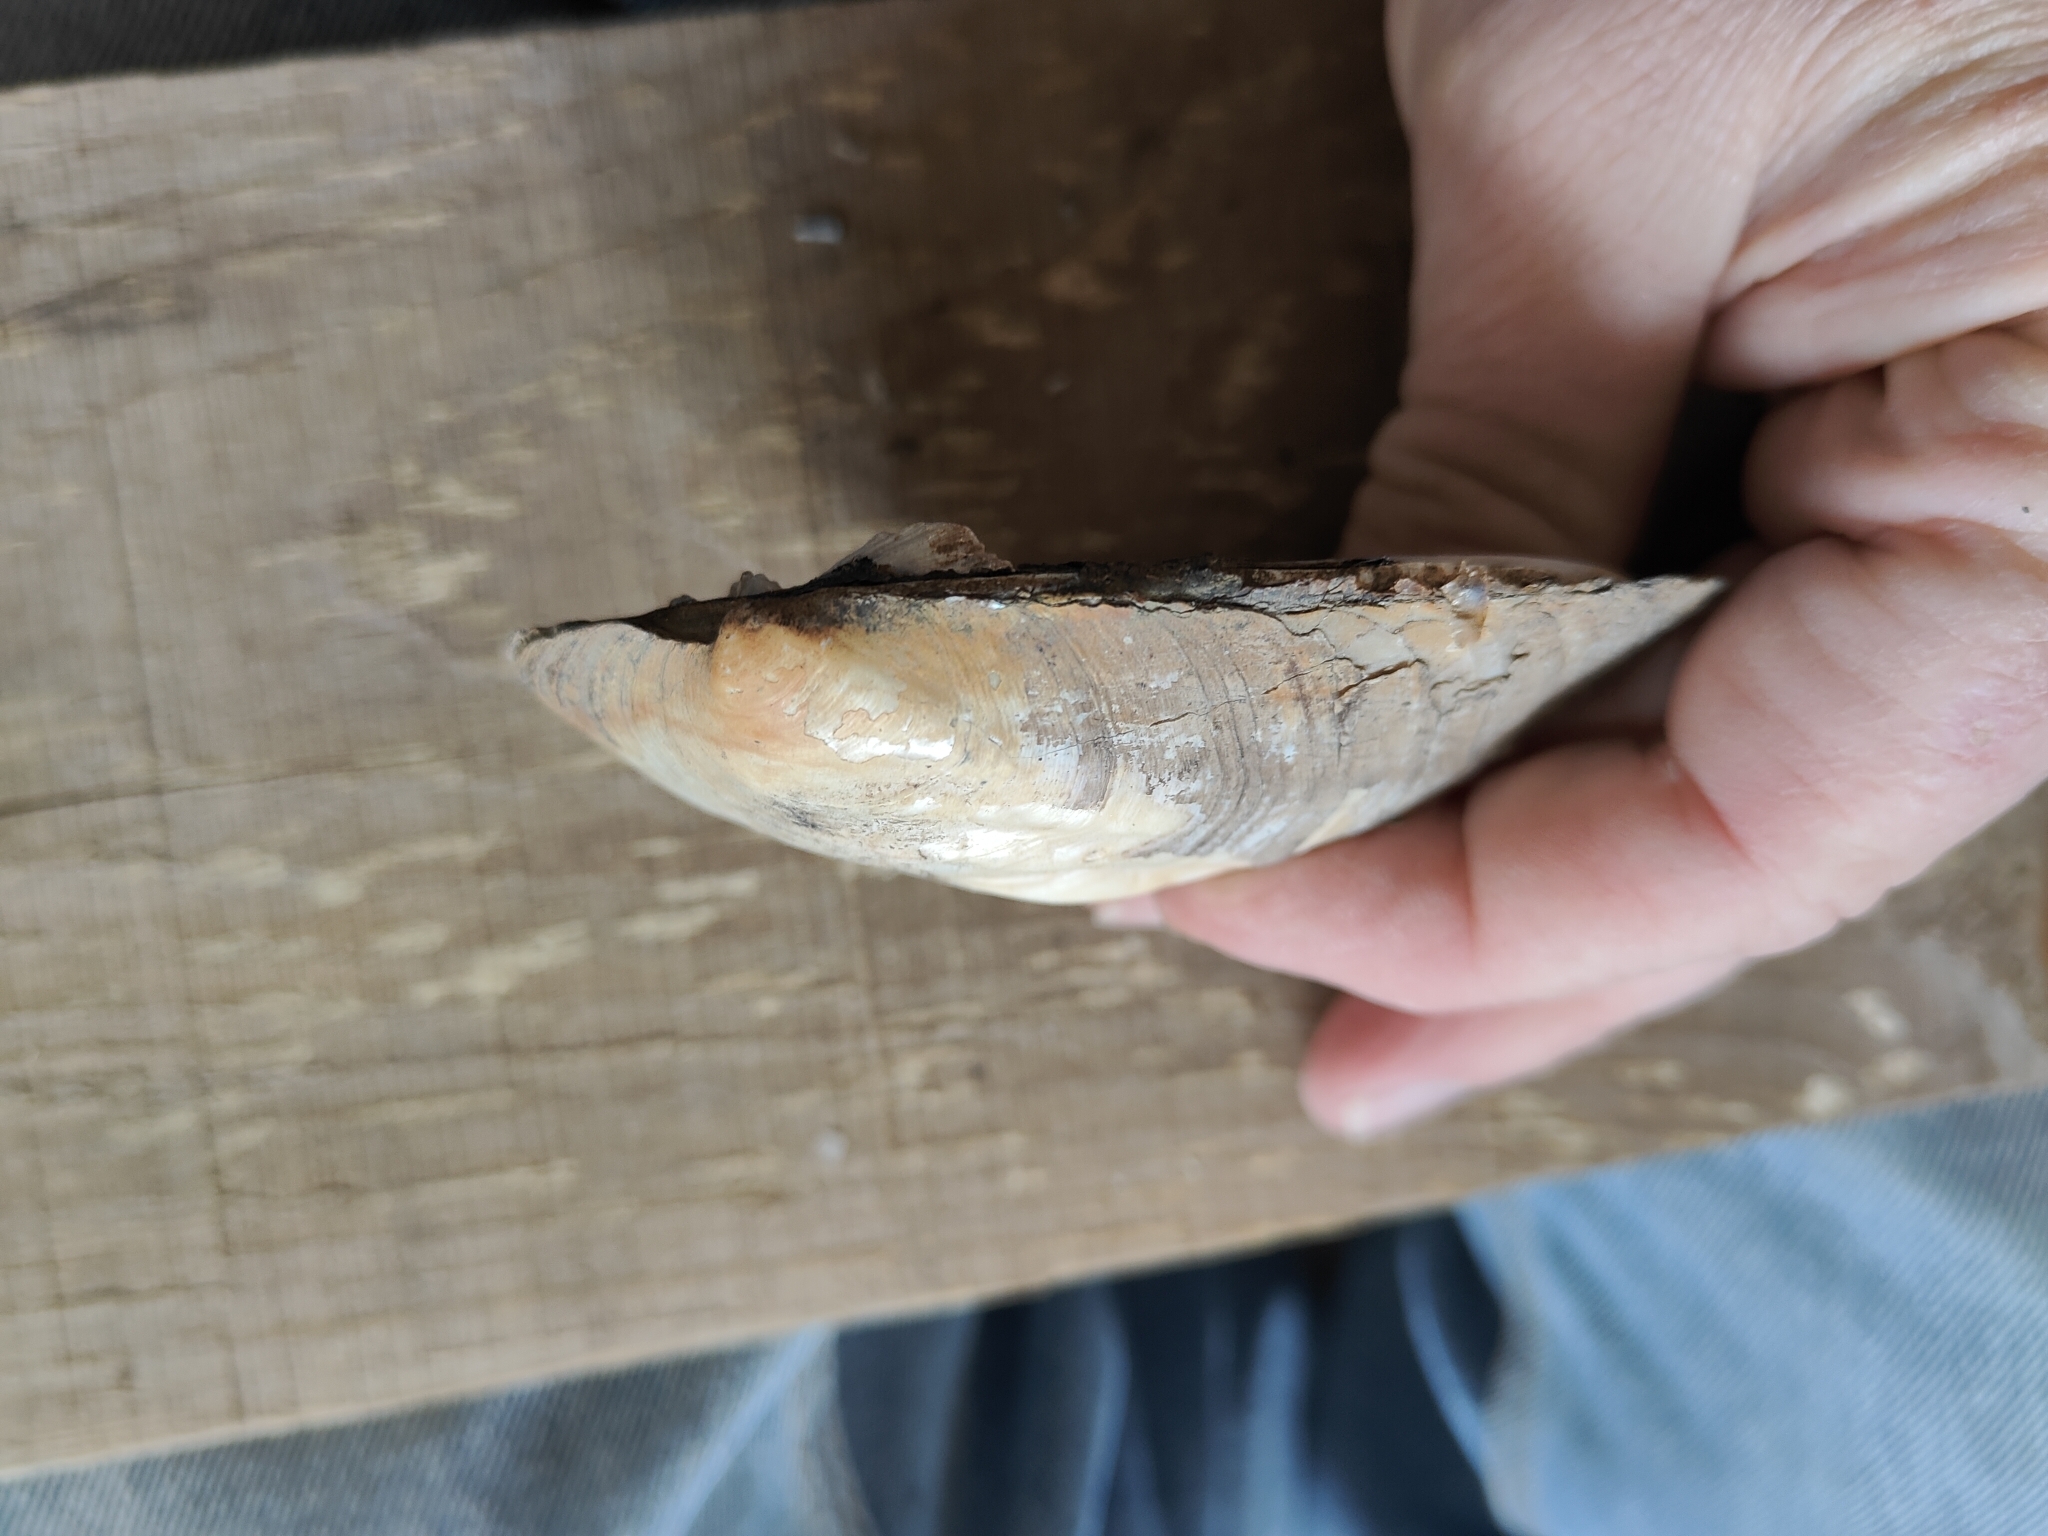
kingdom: Animalia
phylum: Mollusca
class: Bivalvia
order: Unionida
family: Unionidae
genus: Amblema
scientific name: Amblema plicata
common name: Threeridge
